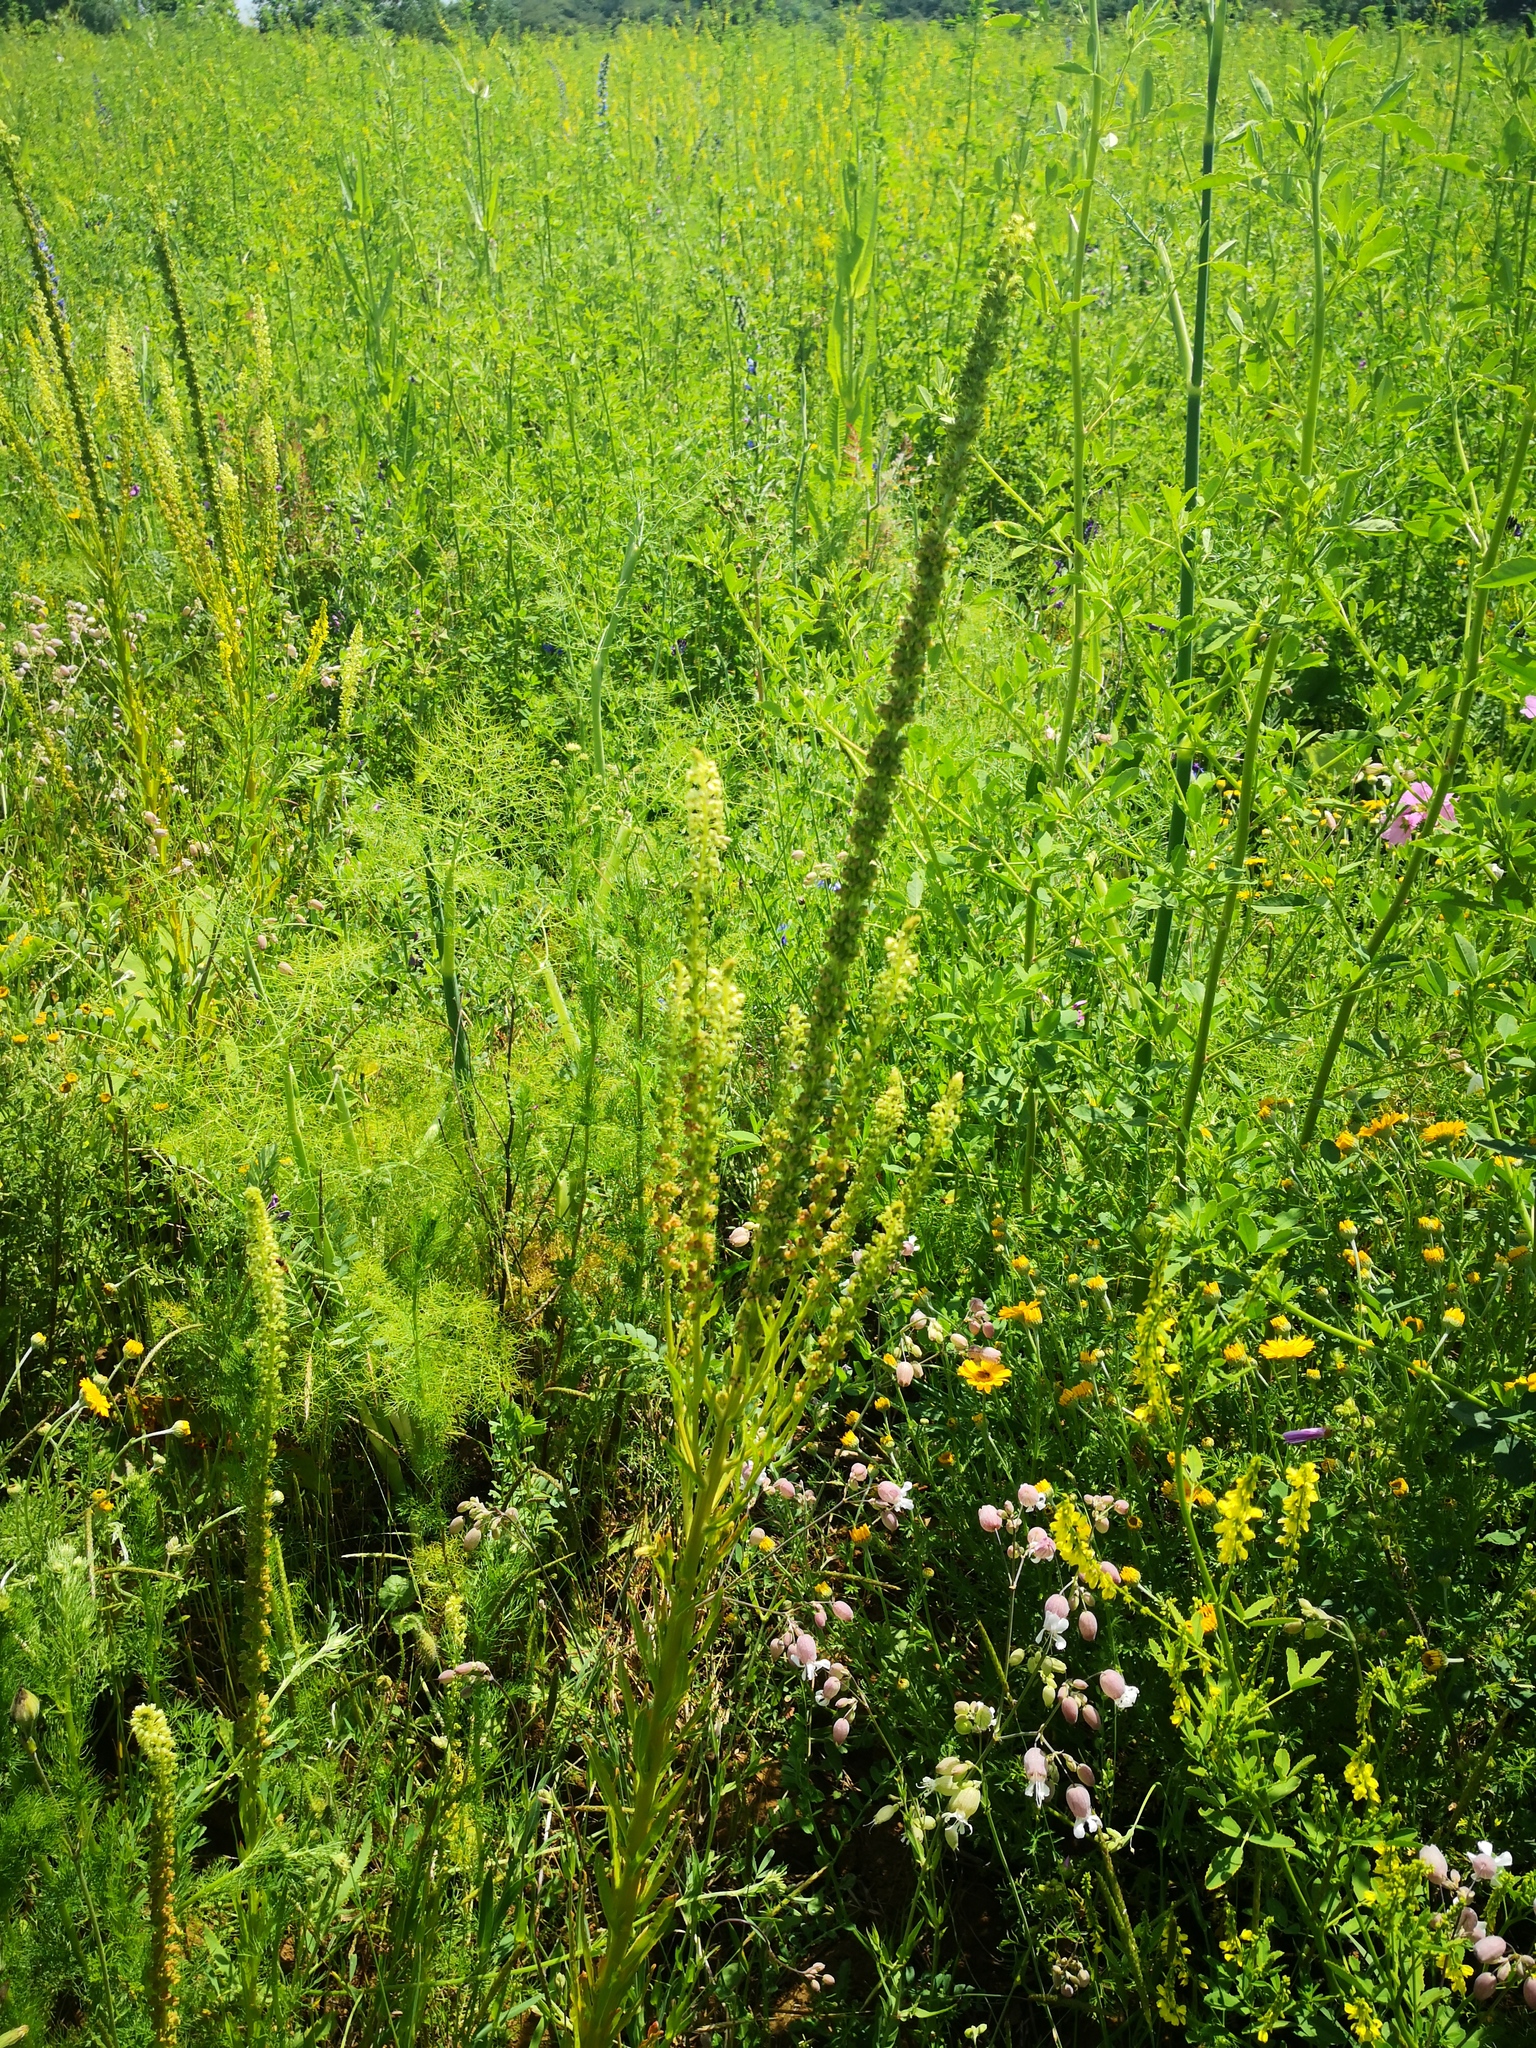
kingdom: Plantae
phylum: Tracheophyta
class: Magnoliopsida
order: Brassicales
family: Resedaceae
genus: Reseda
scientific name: Reseda luteola
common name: Weld
